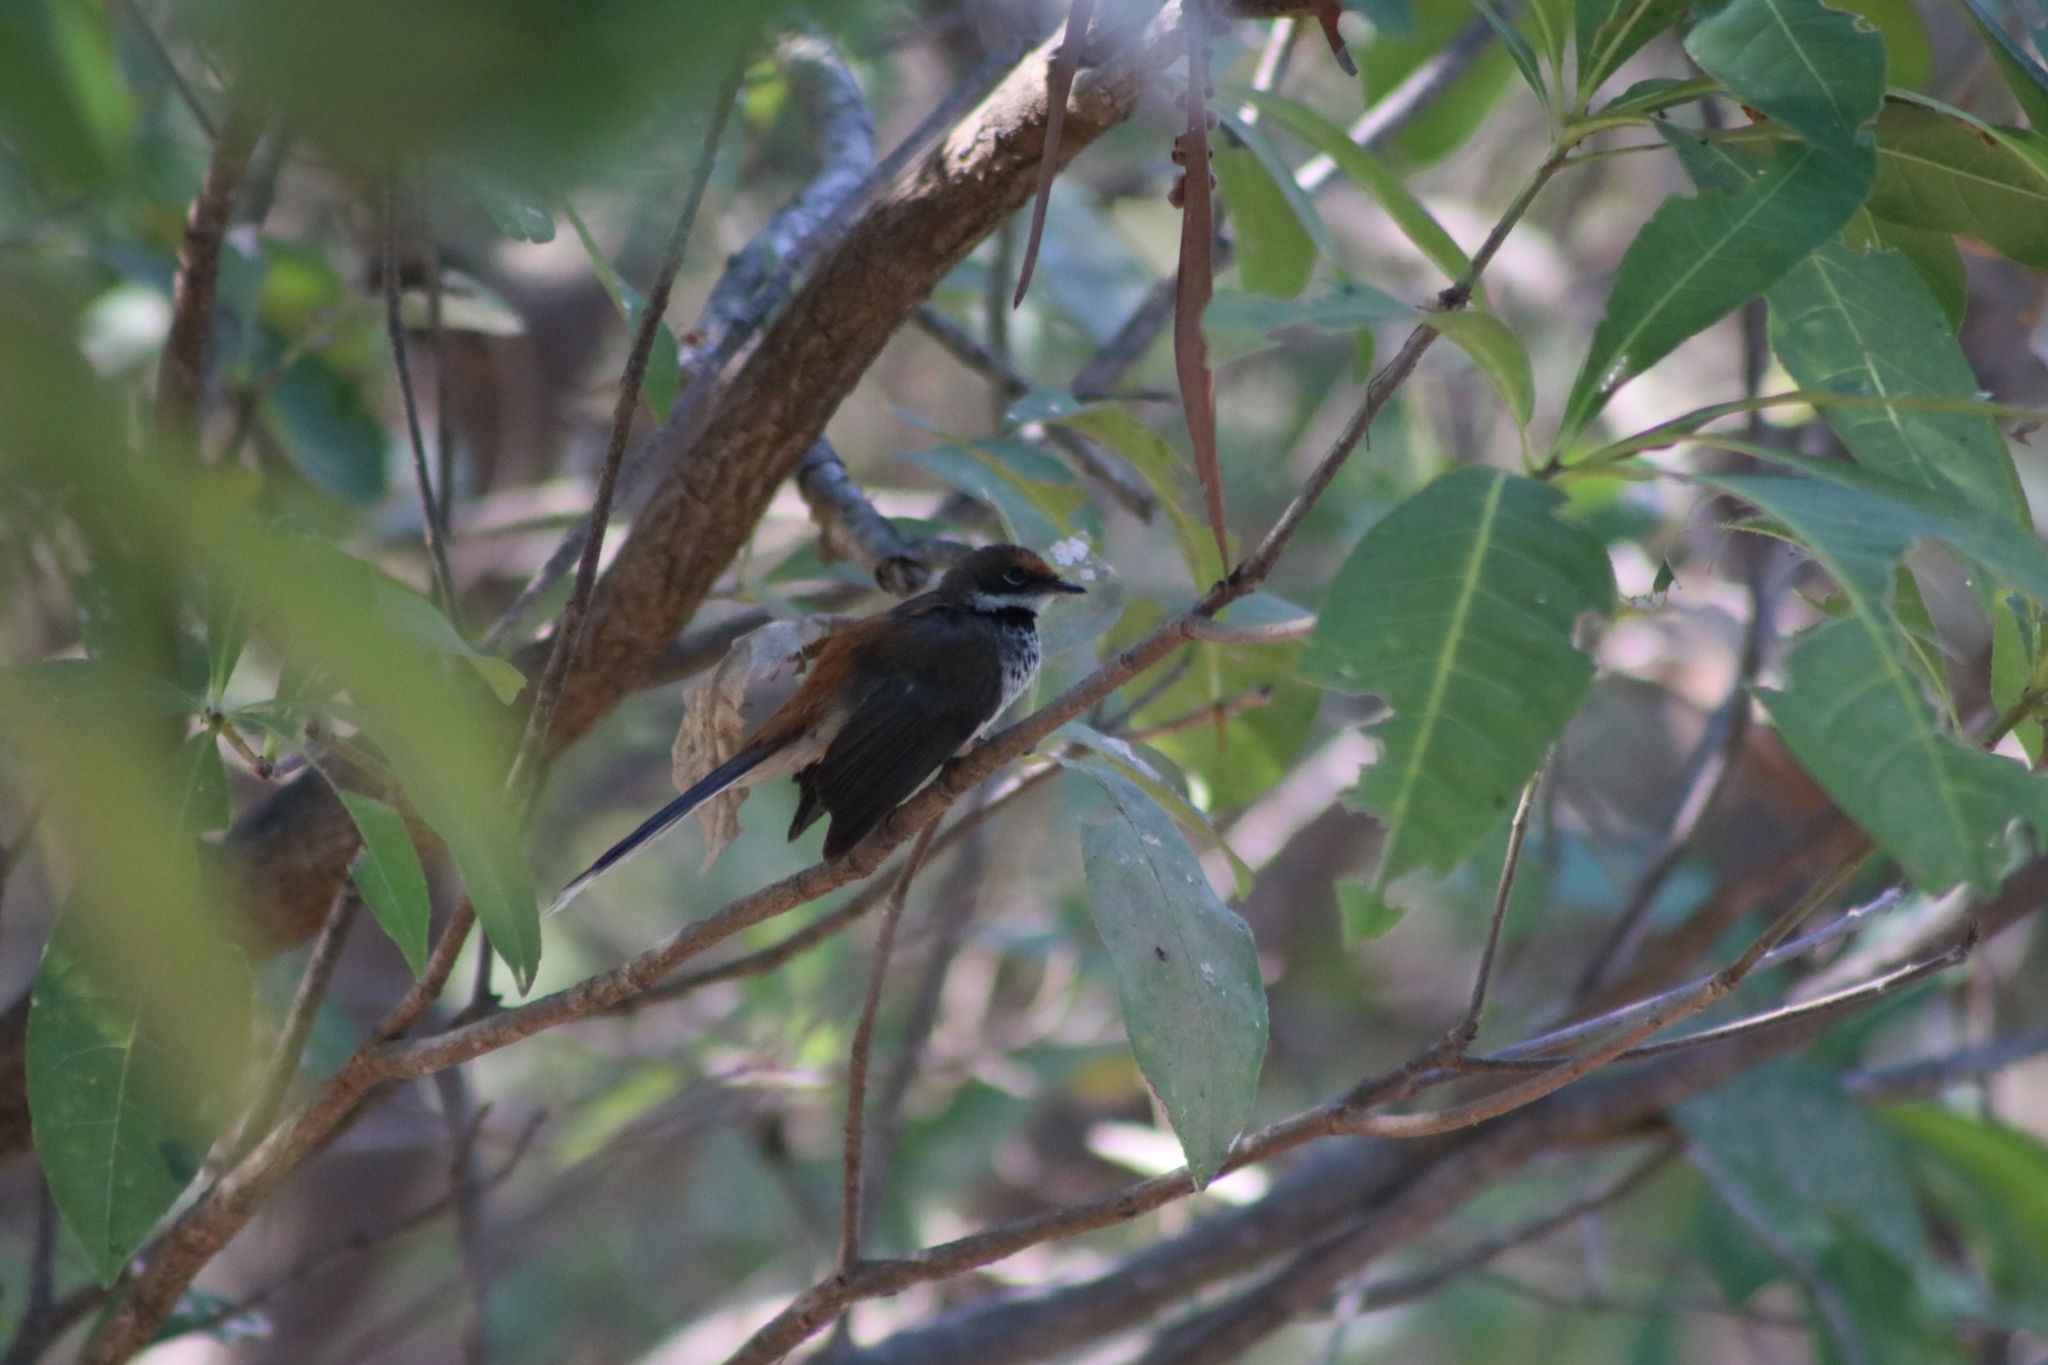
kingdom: Animalia
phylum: Chordata
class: Aves
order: Passeriformes
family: Rhipiduridae
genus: Rhipidura
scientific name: Rhipidura dryas
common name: Arafura fantail
